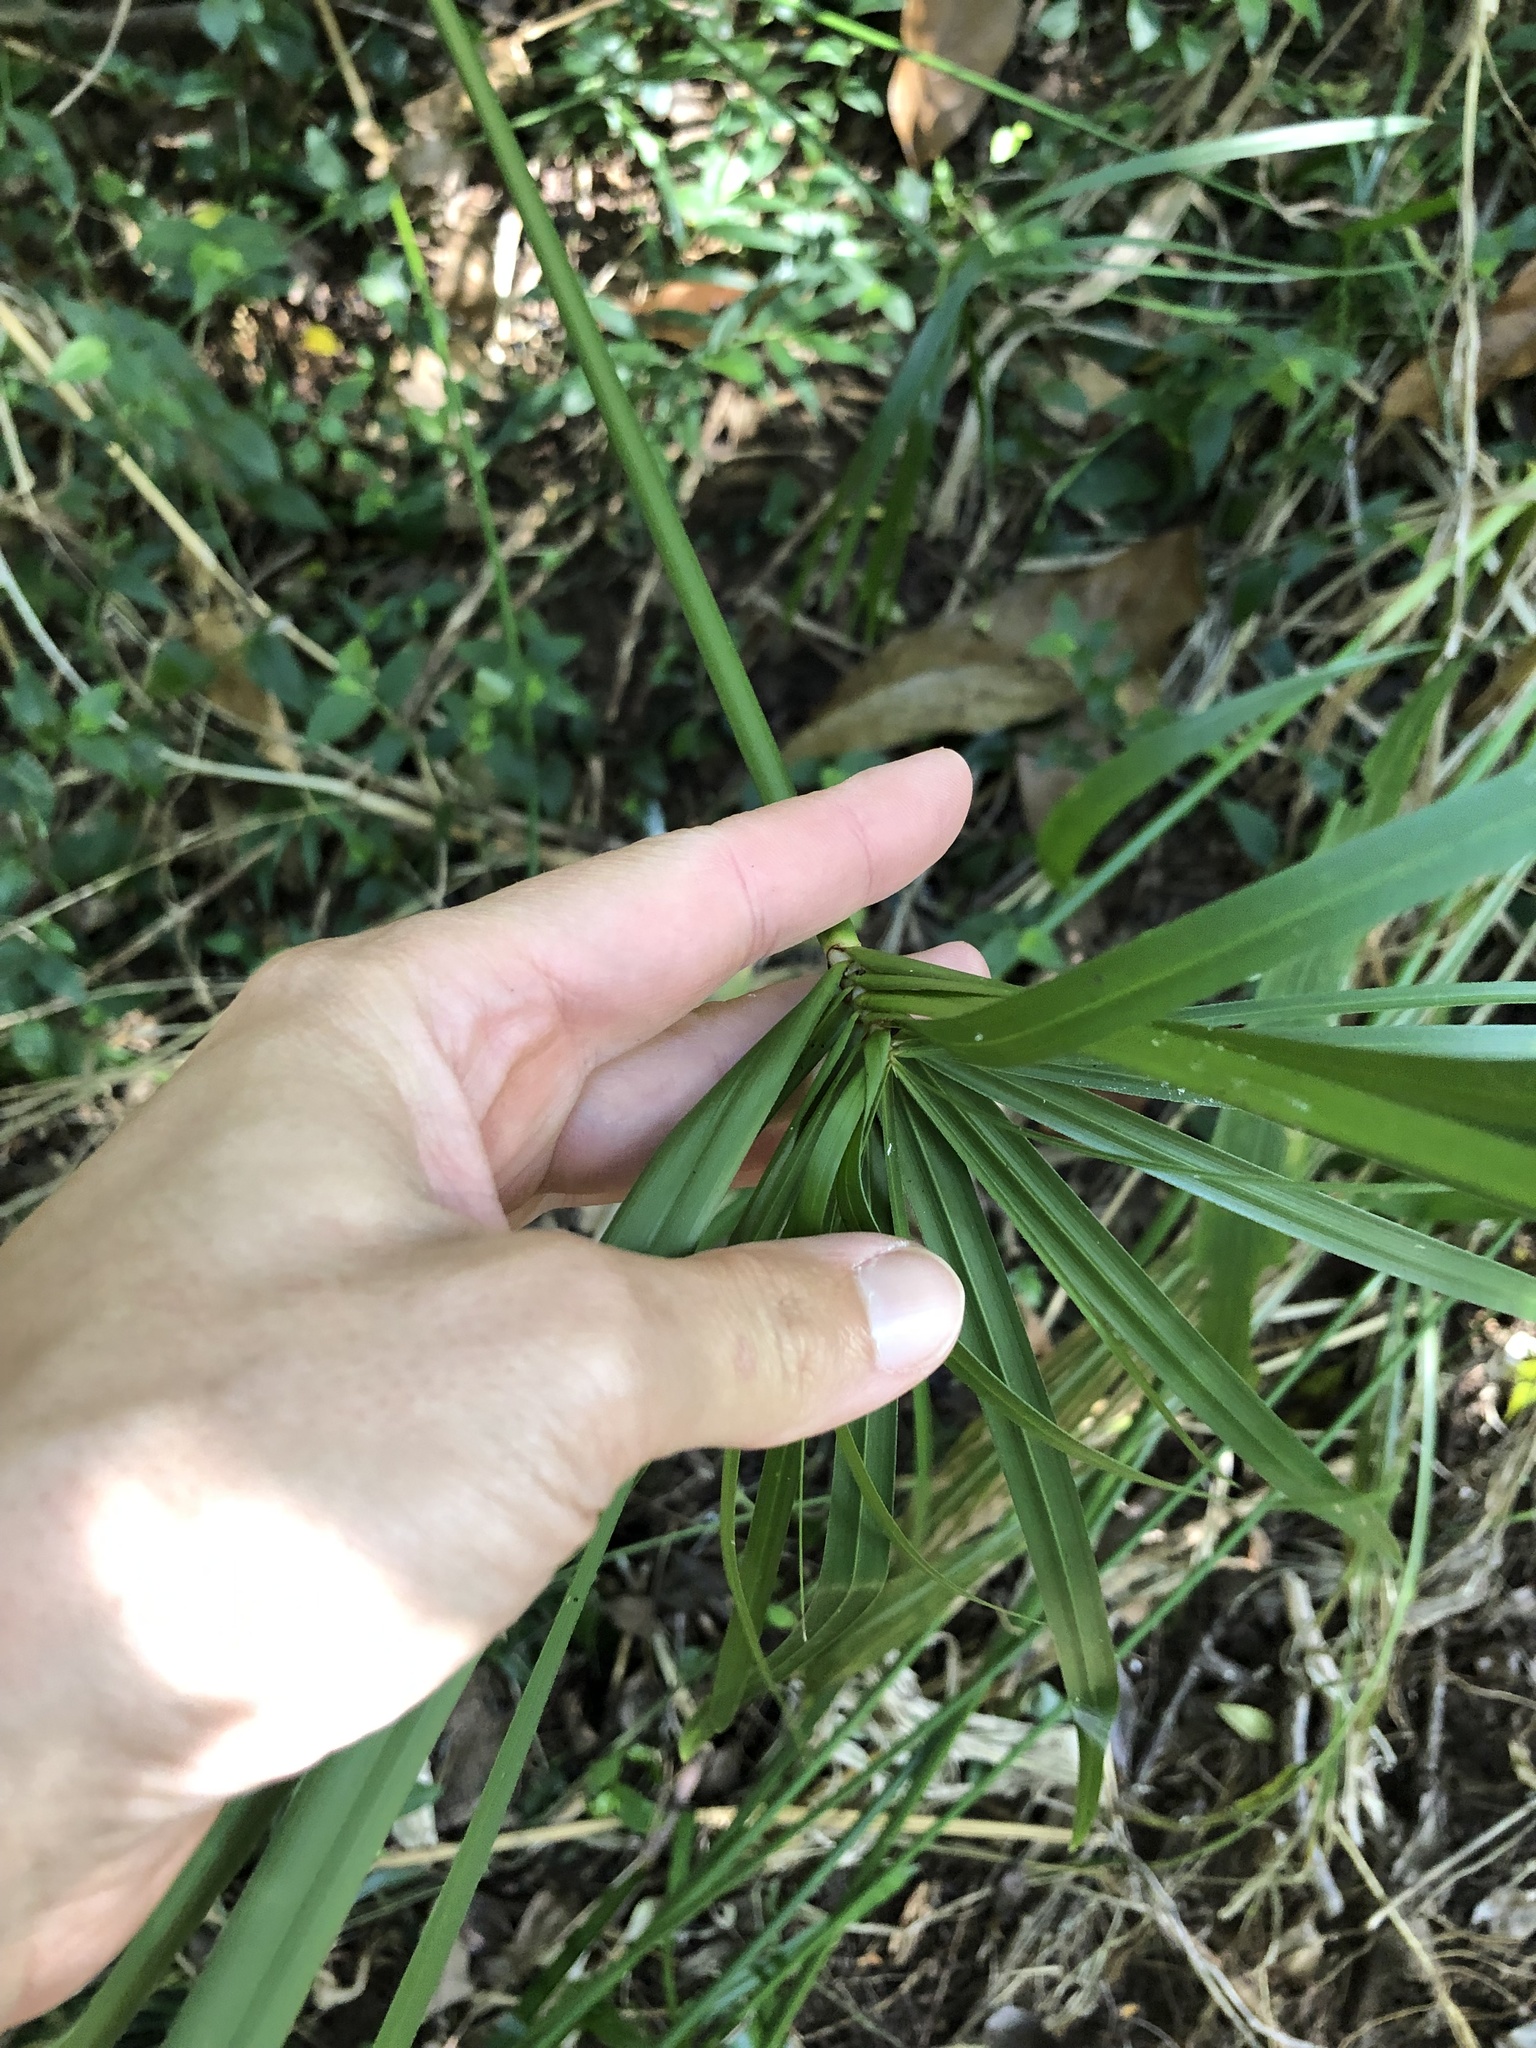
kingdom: Plantae
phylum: Tracheophyta
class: Liliopsida
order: Poales
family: Cyperaceae
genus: Cyperus
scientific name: Cyperus alternifolius
